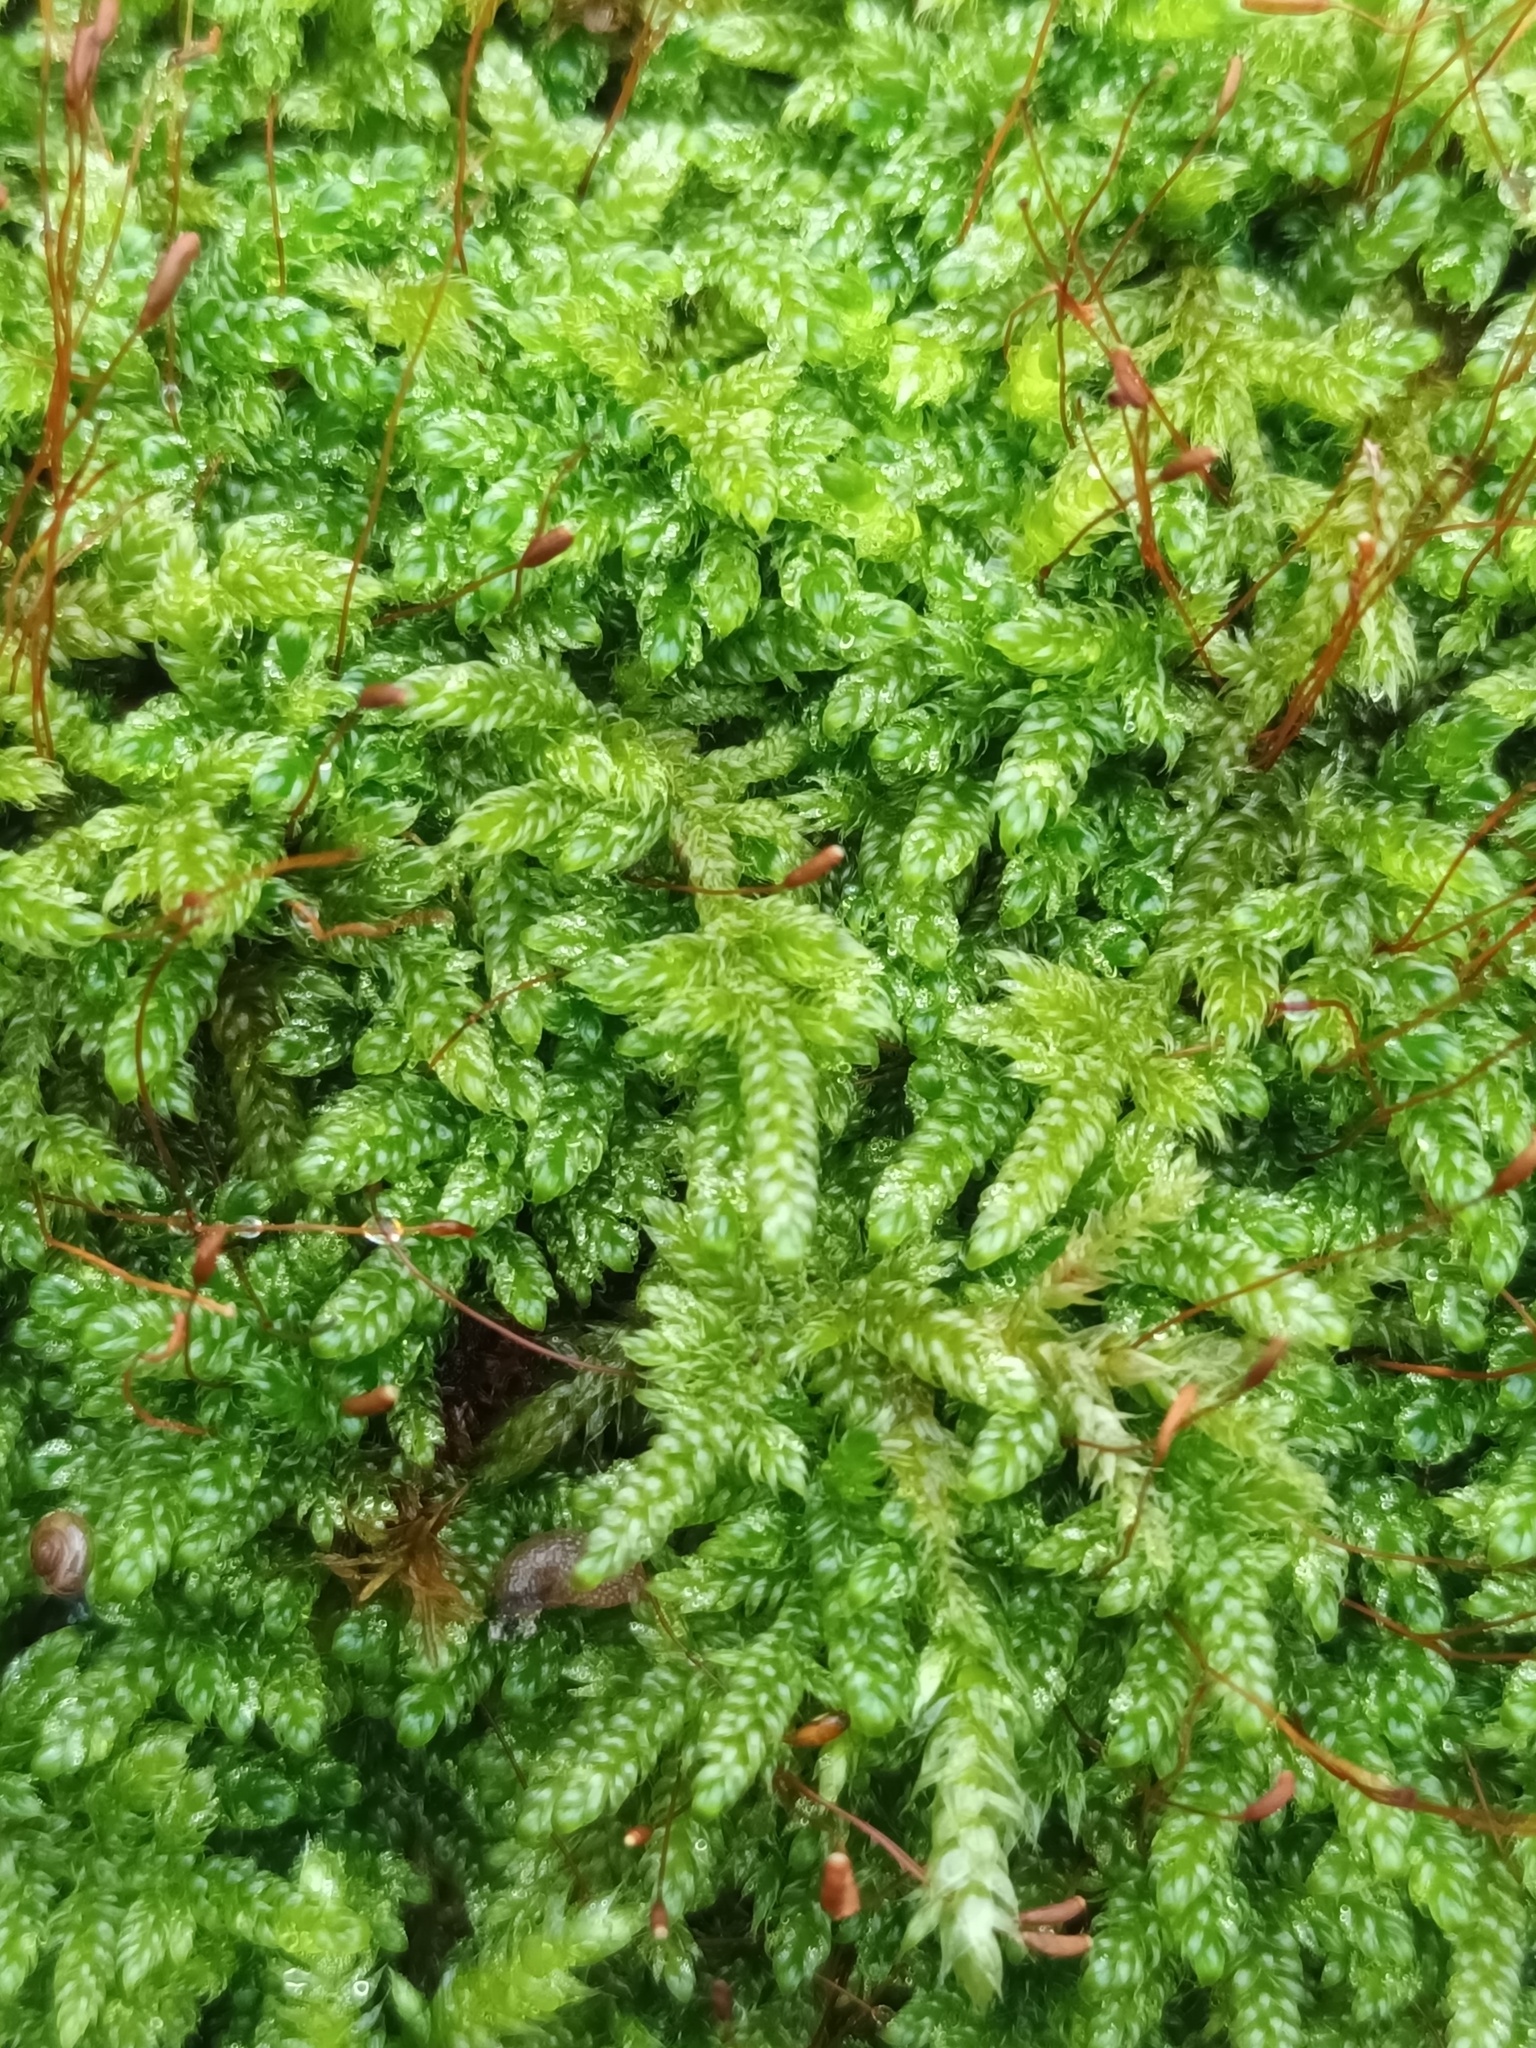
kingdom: Plantae
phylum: Bryophyta
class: Bryopsida
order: Hypnales
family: Hypnaceae
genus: Hypnum
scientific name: Hypnum cupressiforme
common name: Cypress-leaved plait-moss
